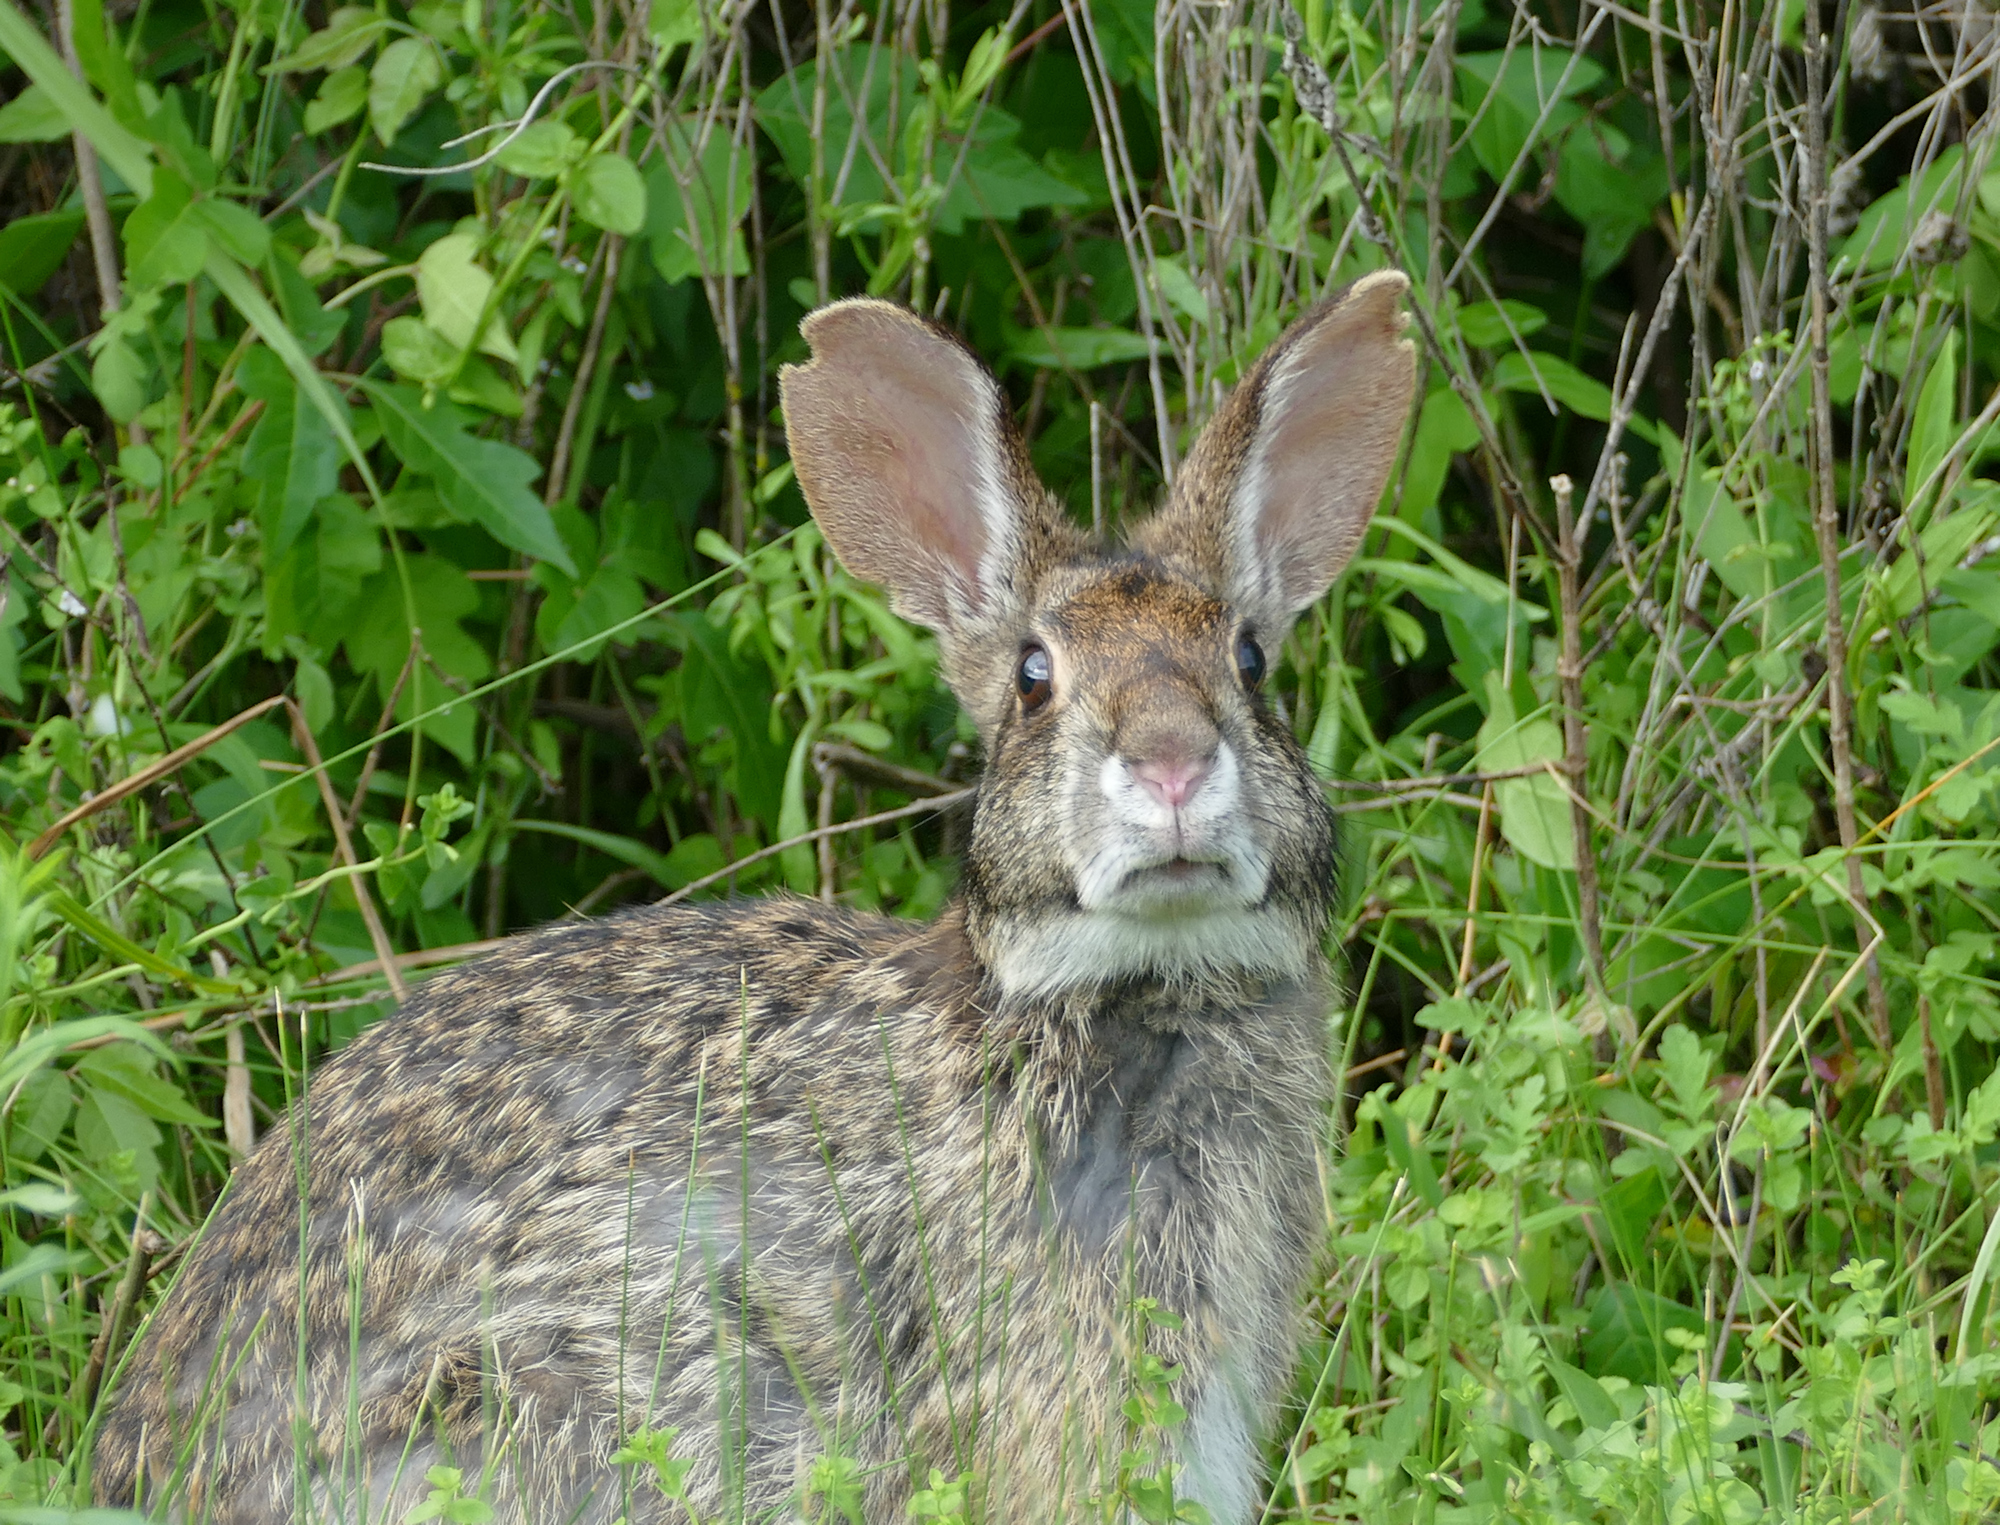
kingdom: Animalia
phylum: Chordata
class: Mammalia
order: Lagomorpha
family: Leporidae
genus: Sylvilagus
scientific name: Sylvilagus aquaticus
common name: Swamp rabbit
